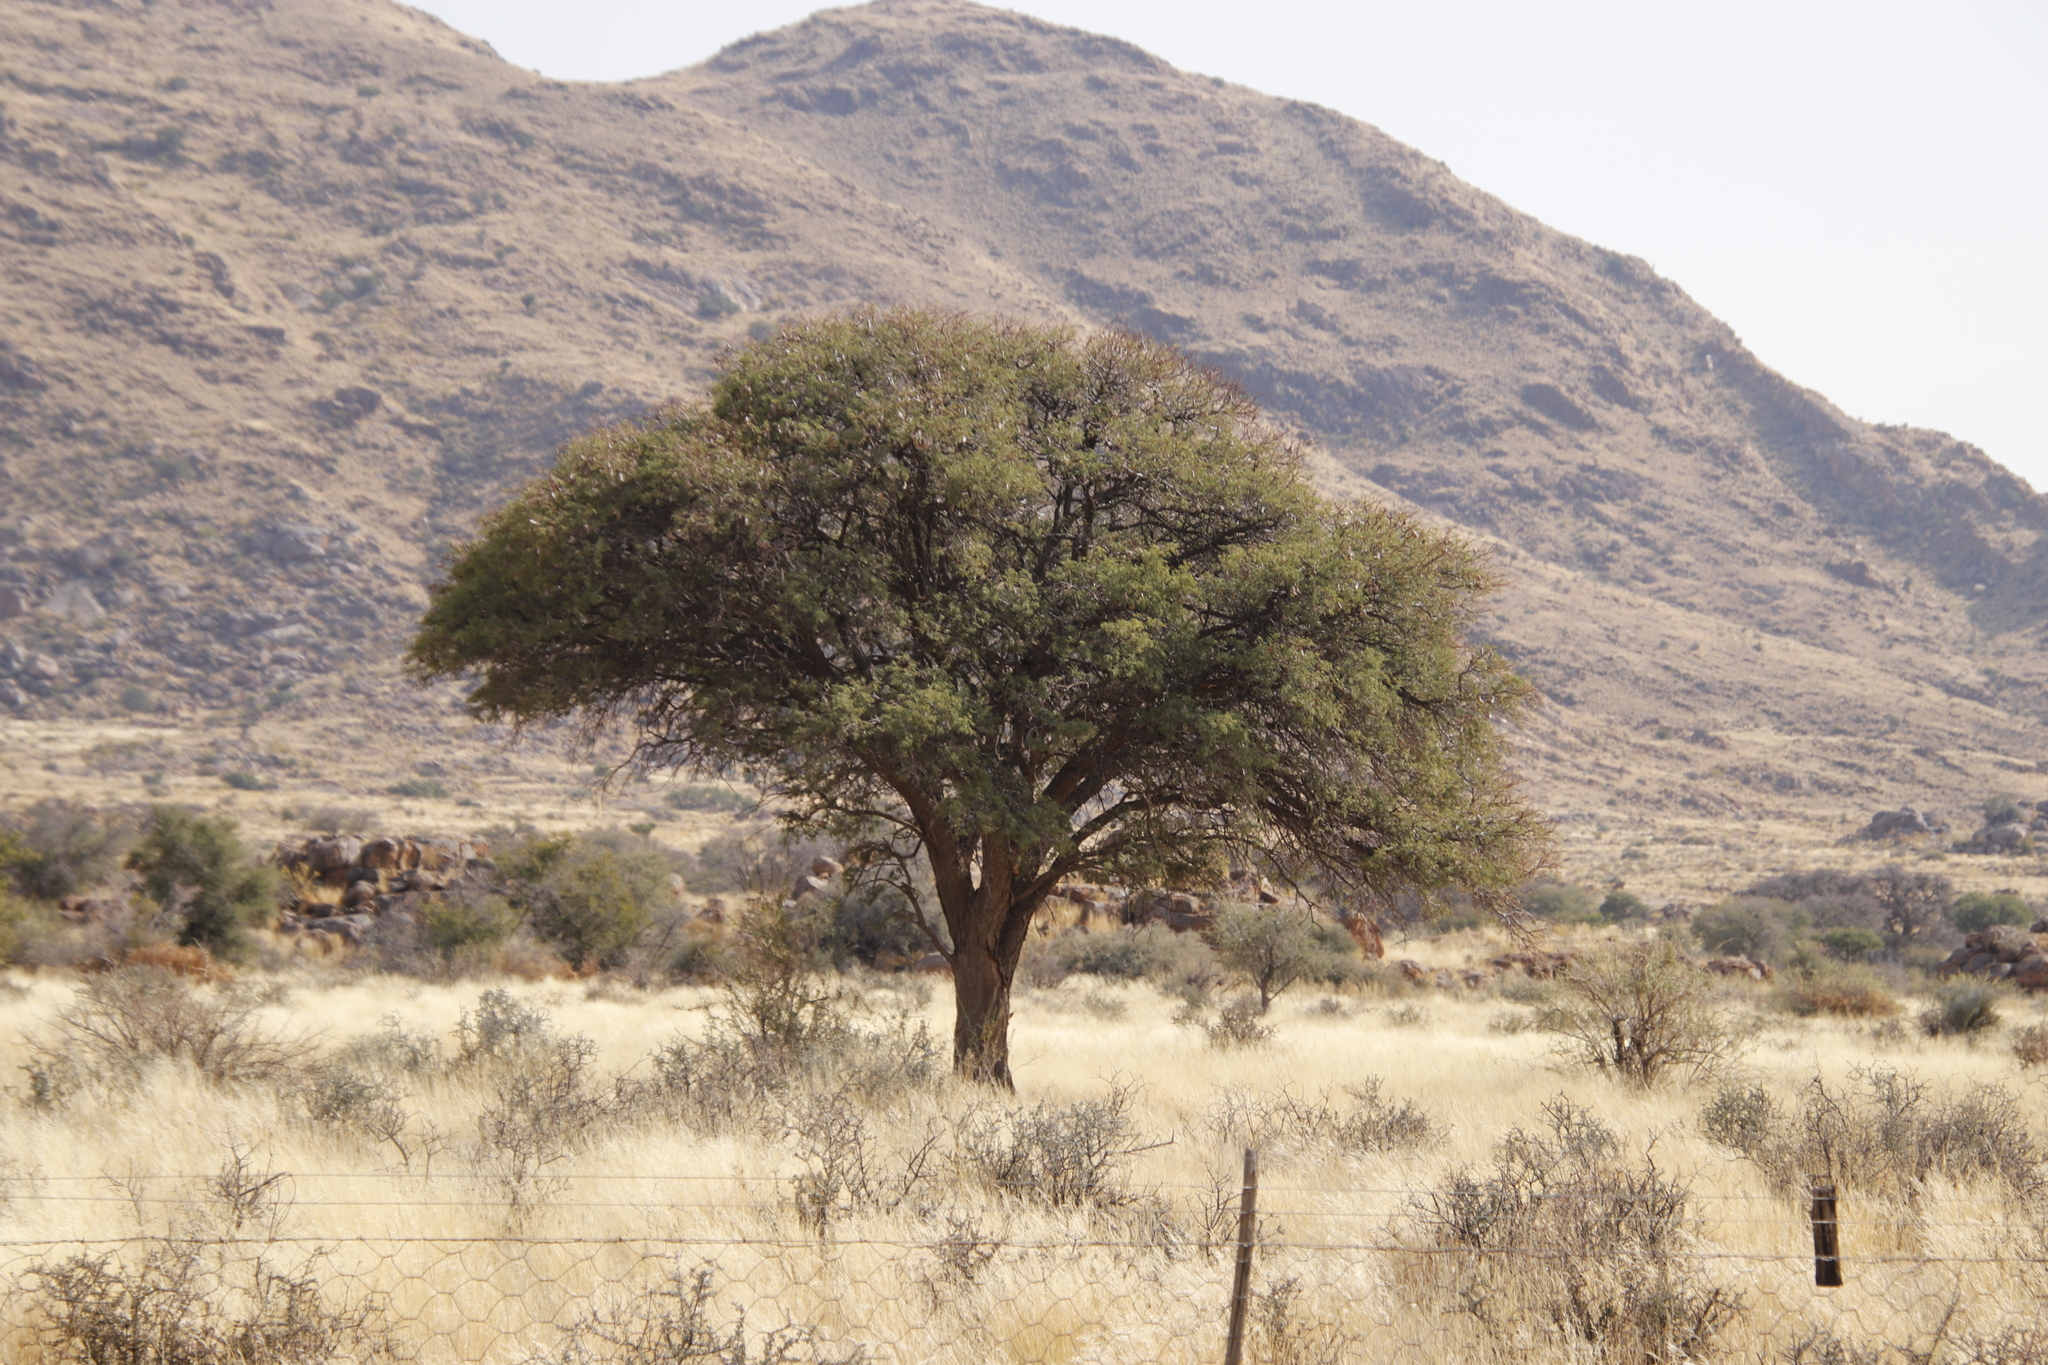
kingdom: Plantae
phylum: Tracheophyta
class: Magnoliopsida
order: Fabales
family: Fabaceae
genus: Vachellia
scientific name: Vachellia erioloba
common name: Camel thorn
